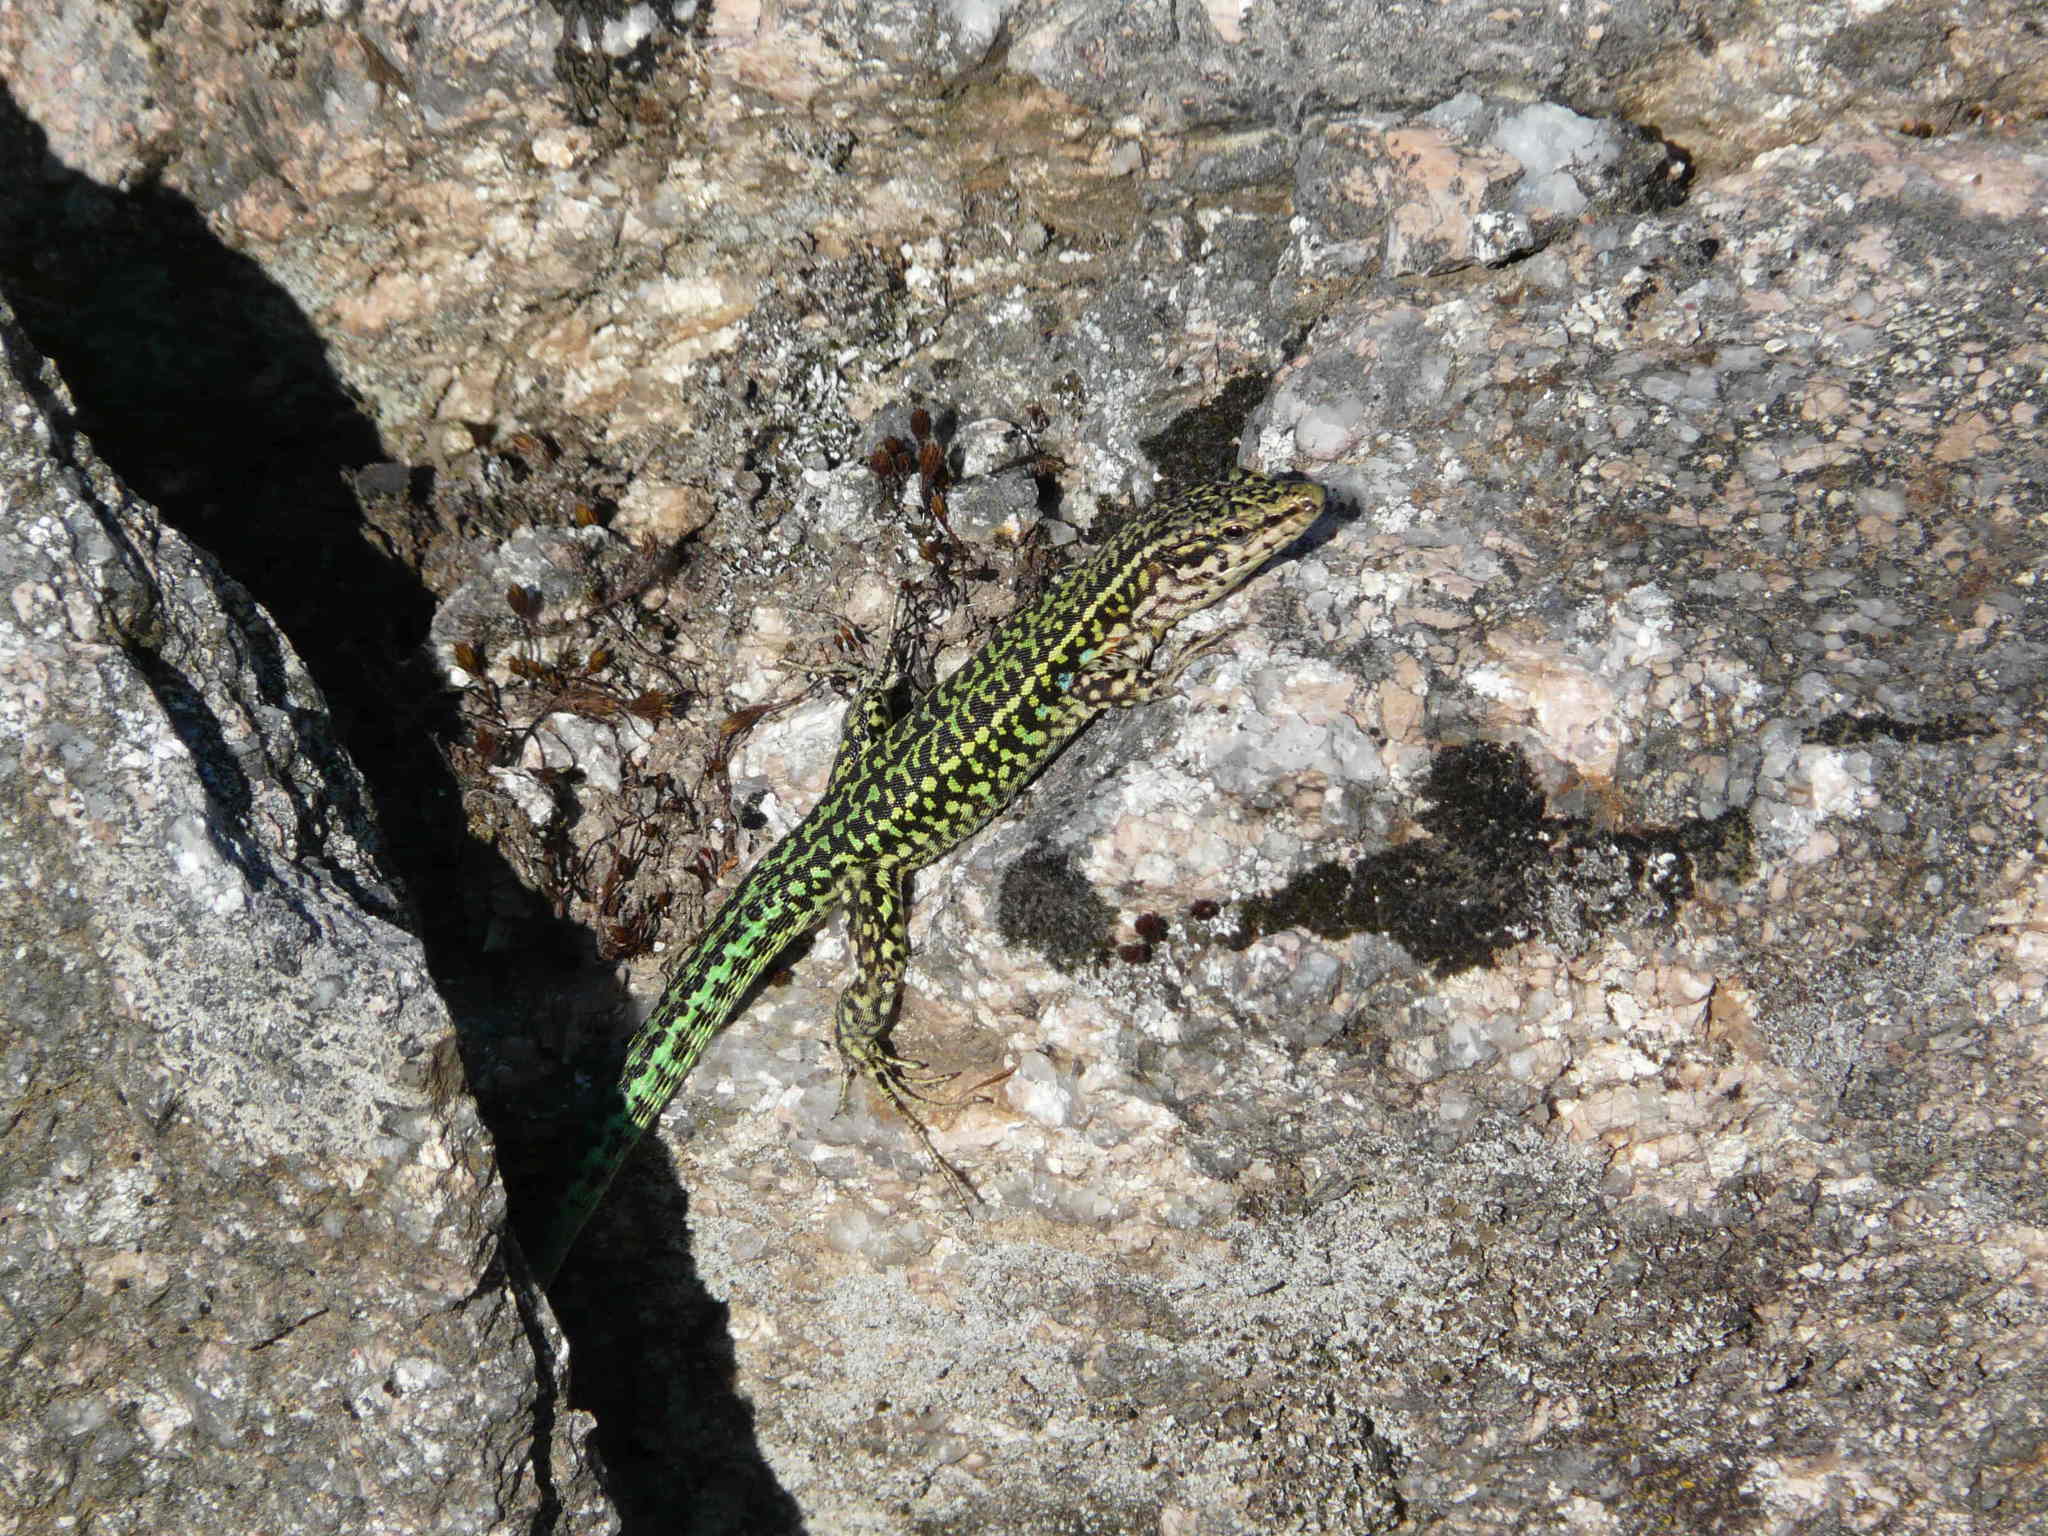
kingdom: Animalia
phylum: Chordata
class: Squamata
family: Lacertidae
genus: Podarcis
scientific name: Podarcis tiliguerta
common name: Tyrrhenian wall lizard
